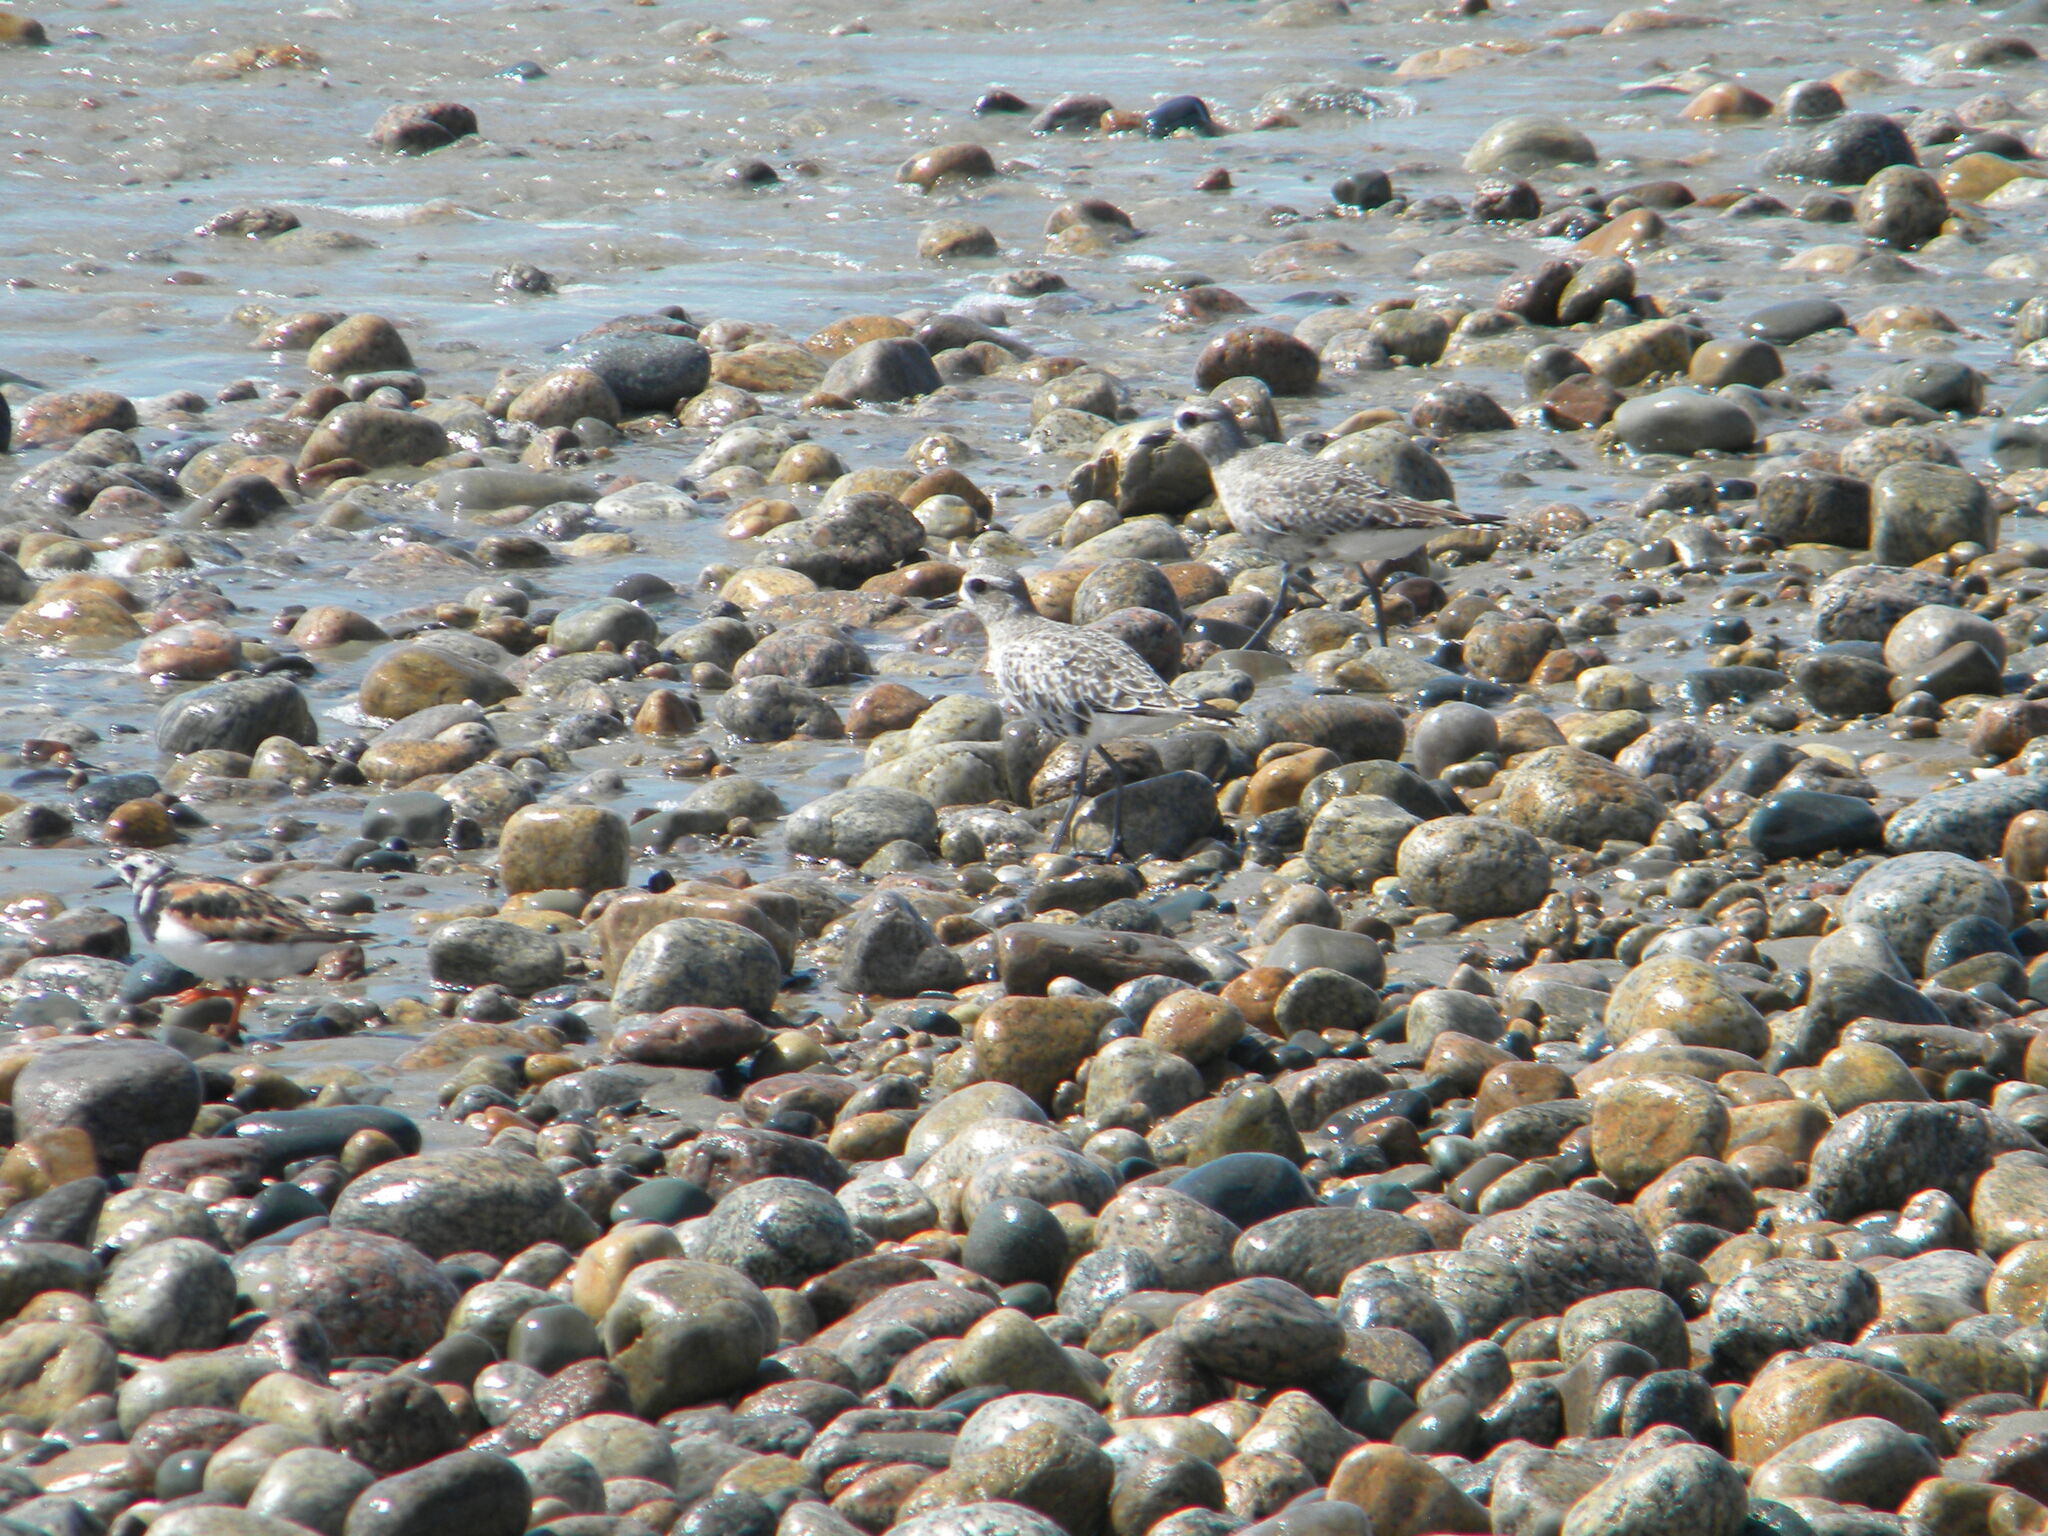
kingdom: Animalia
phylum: Chordata
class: Aves
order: Charadriiformes
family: Charadriidae
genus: Pluvialis
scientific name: Pluvialis squatarola
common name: Grey plover
